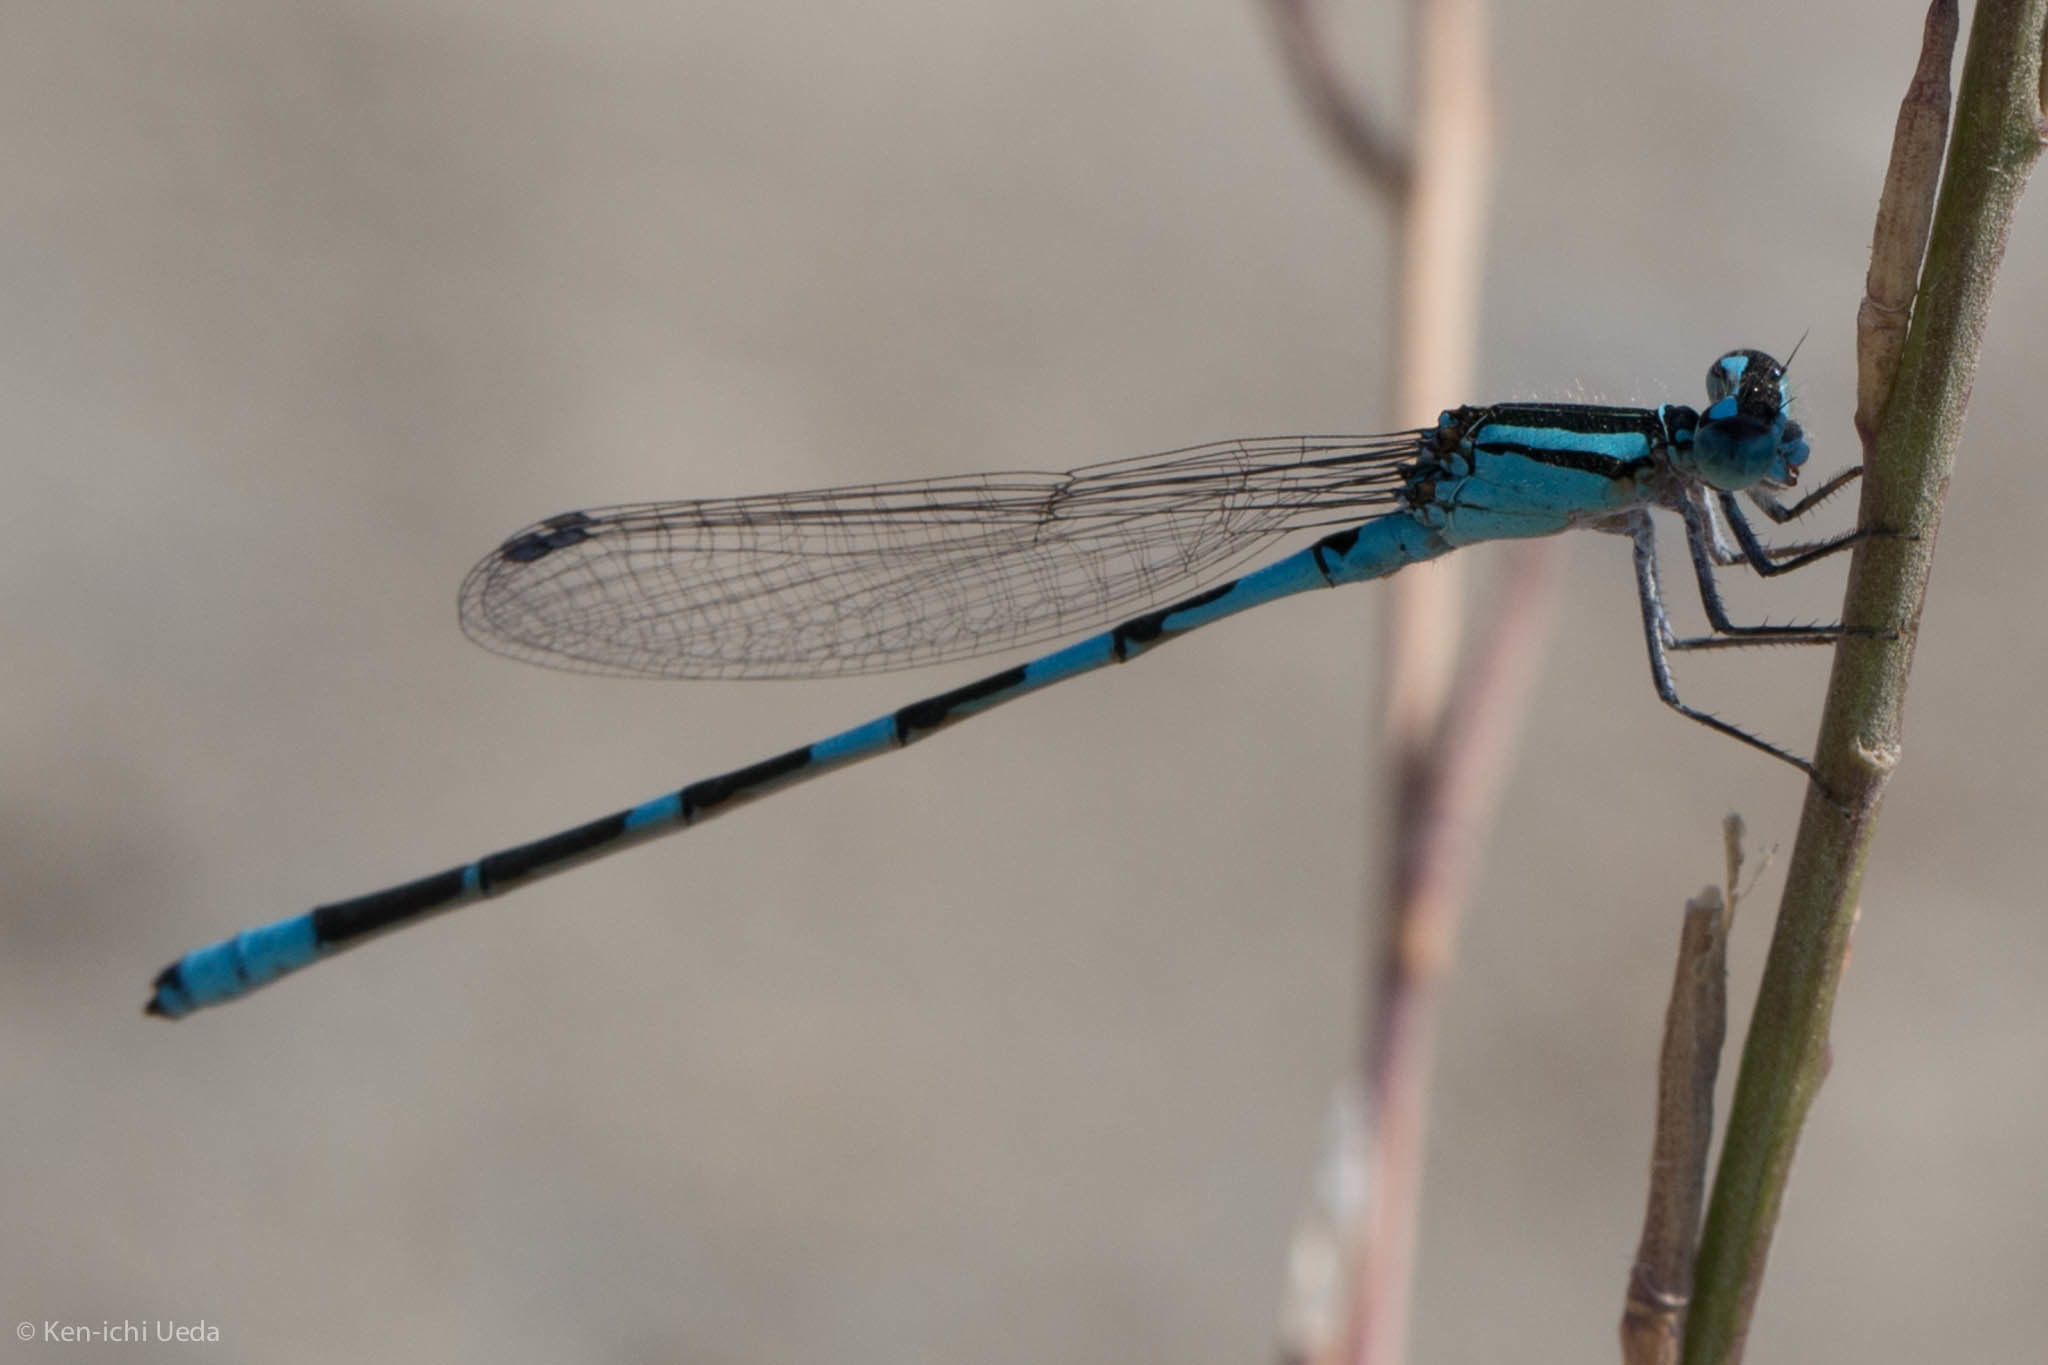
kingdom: Animalia
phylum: Arthropoda
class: Insecta
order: Odonata
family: Coenagrionidae
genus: Enallagma
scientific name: Enallagma carunculatum
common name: Tule bluet
